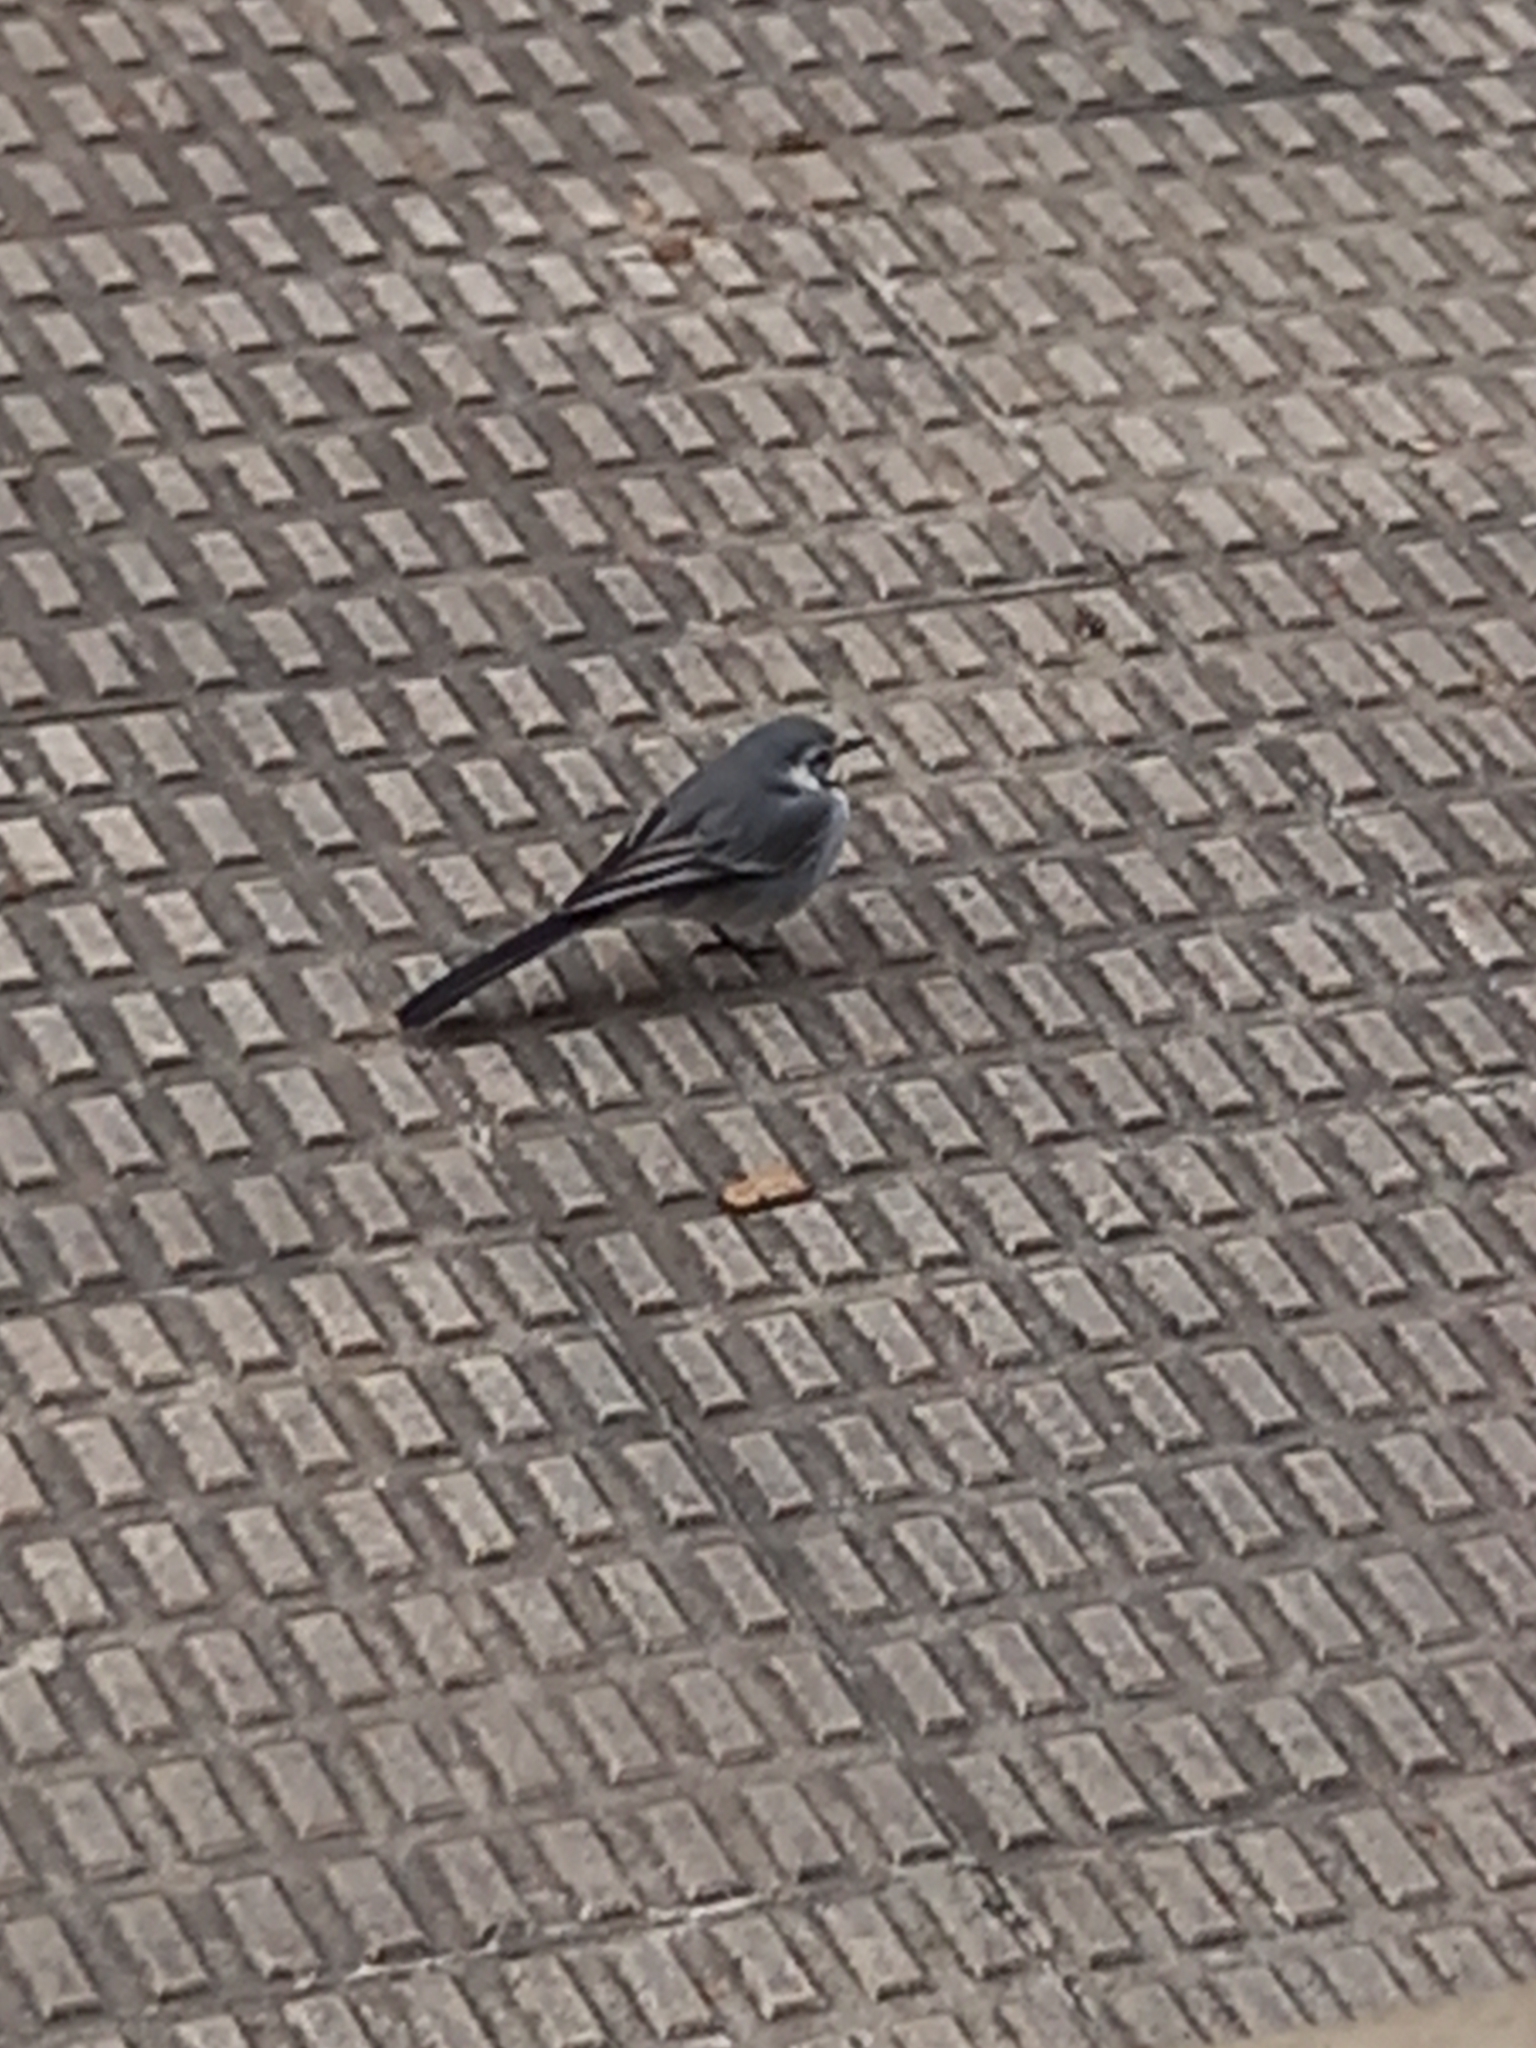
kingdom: Animalia
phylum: Chordata
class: Aves
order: Passeriformes
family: Motacillidae
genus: Motacilla
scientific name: Motacilla alba
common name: White wagtail
